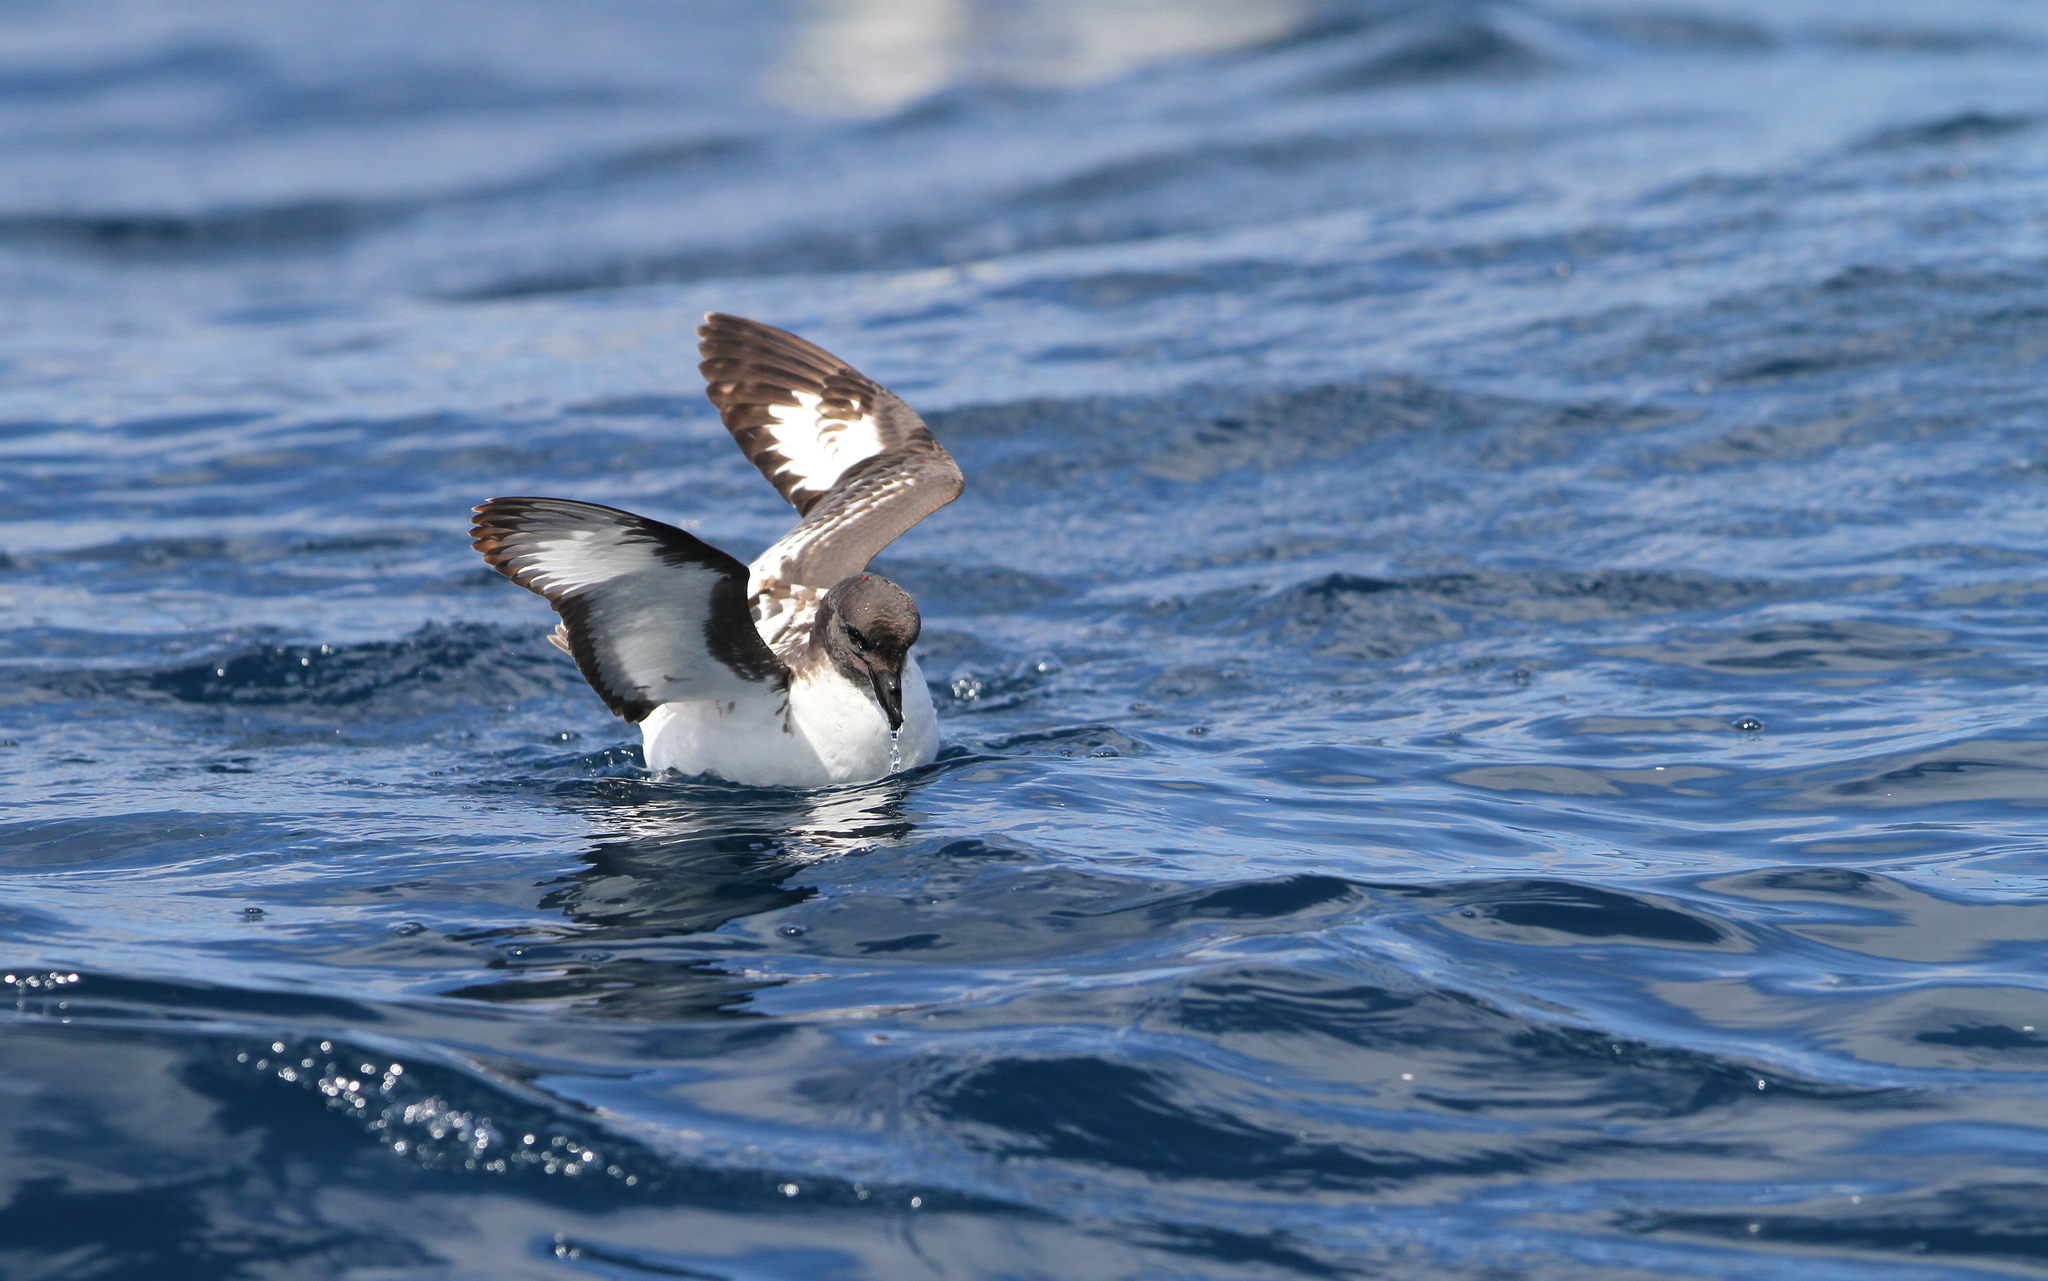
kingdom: Animalia
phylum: Chordata
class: Aves
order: Procellariiformes
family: Procellariidae
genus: Daption
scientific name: Daption capense
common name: Cape petrel
